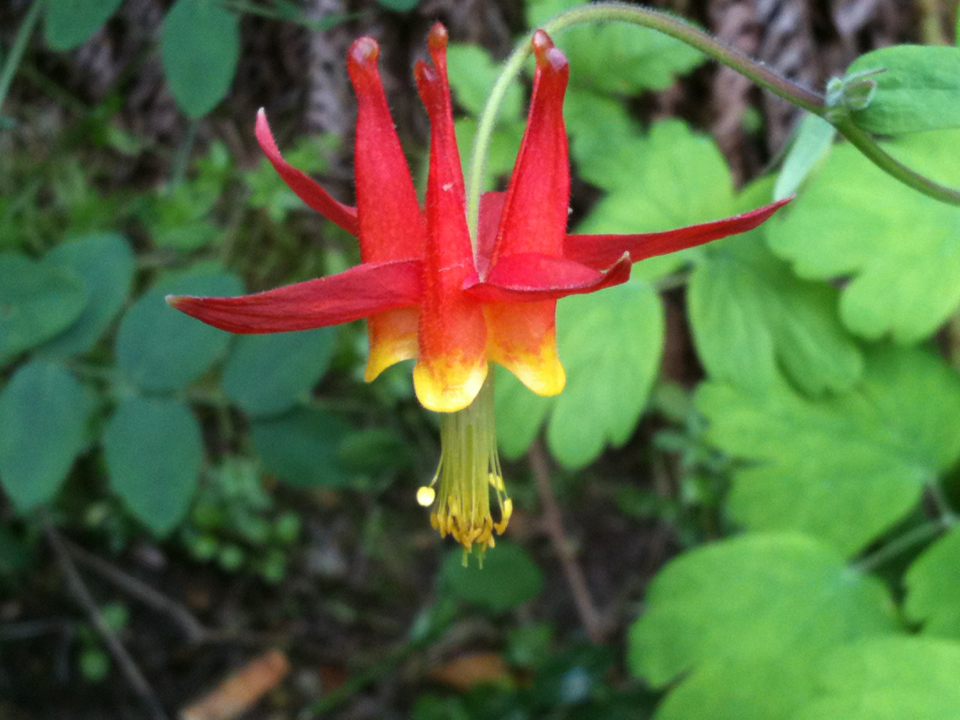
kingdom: Plantae
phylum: Tracheophyta
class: Magnoliopsida
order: Ranunculales
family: Ranunculaceae
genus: Aquilegia
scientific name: Aquilegia formosa
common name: Sitka columbine
